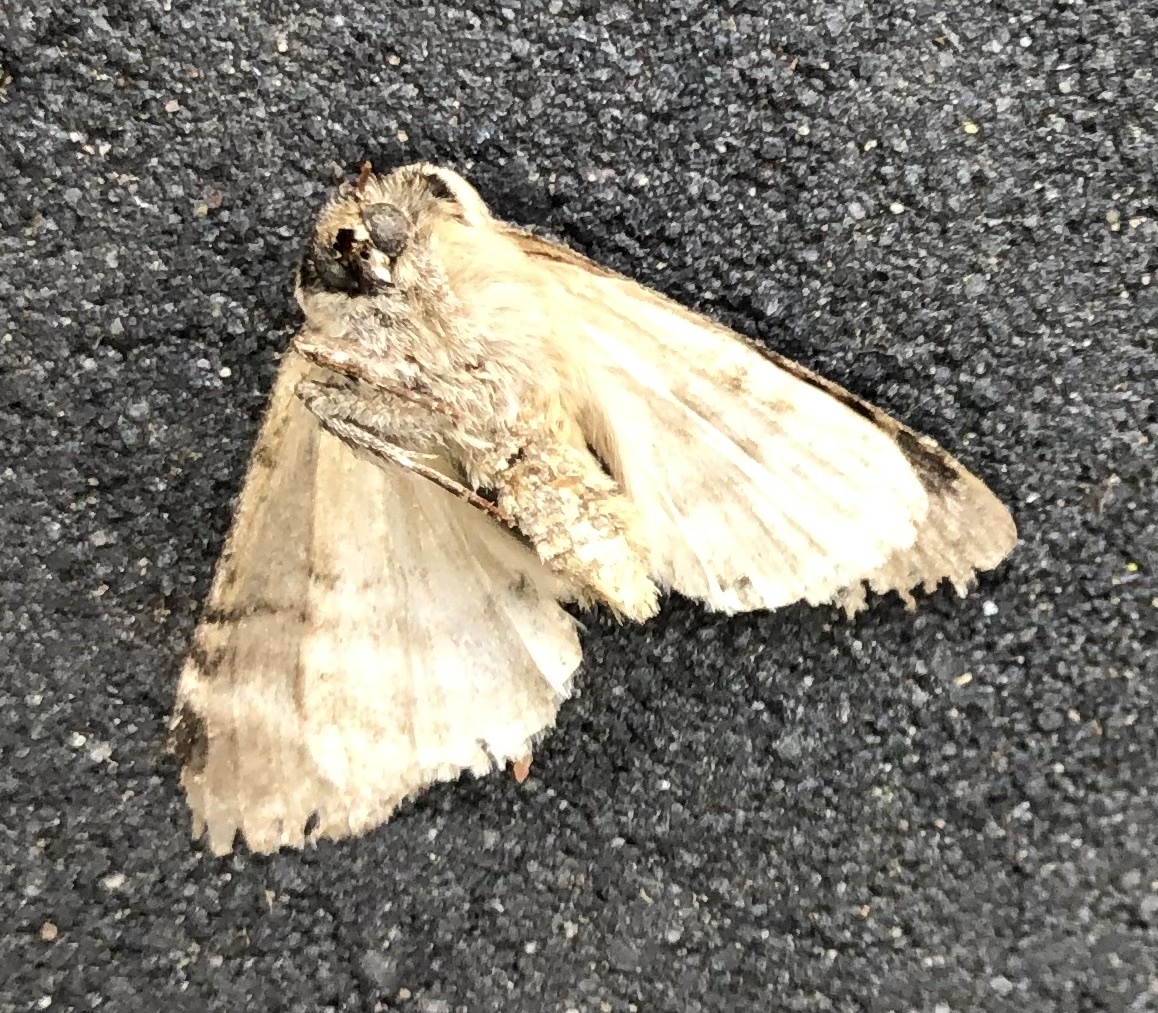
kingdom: Animalia
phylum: Arthropoda
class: Insecta
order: Lepidoptera
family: Drepanidae
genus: Tethea
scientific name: Tethea ocularis
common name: Figure of eighty
